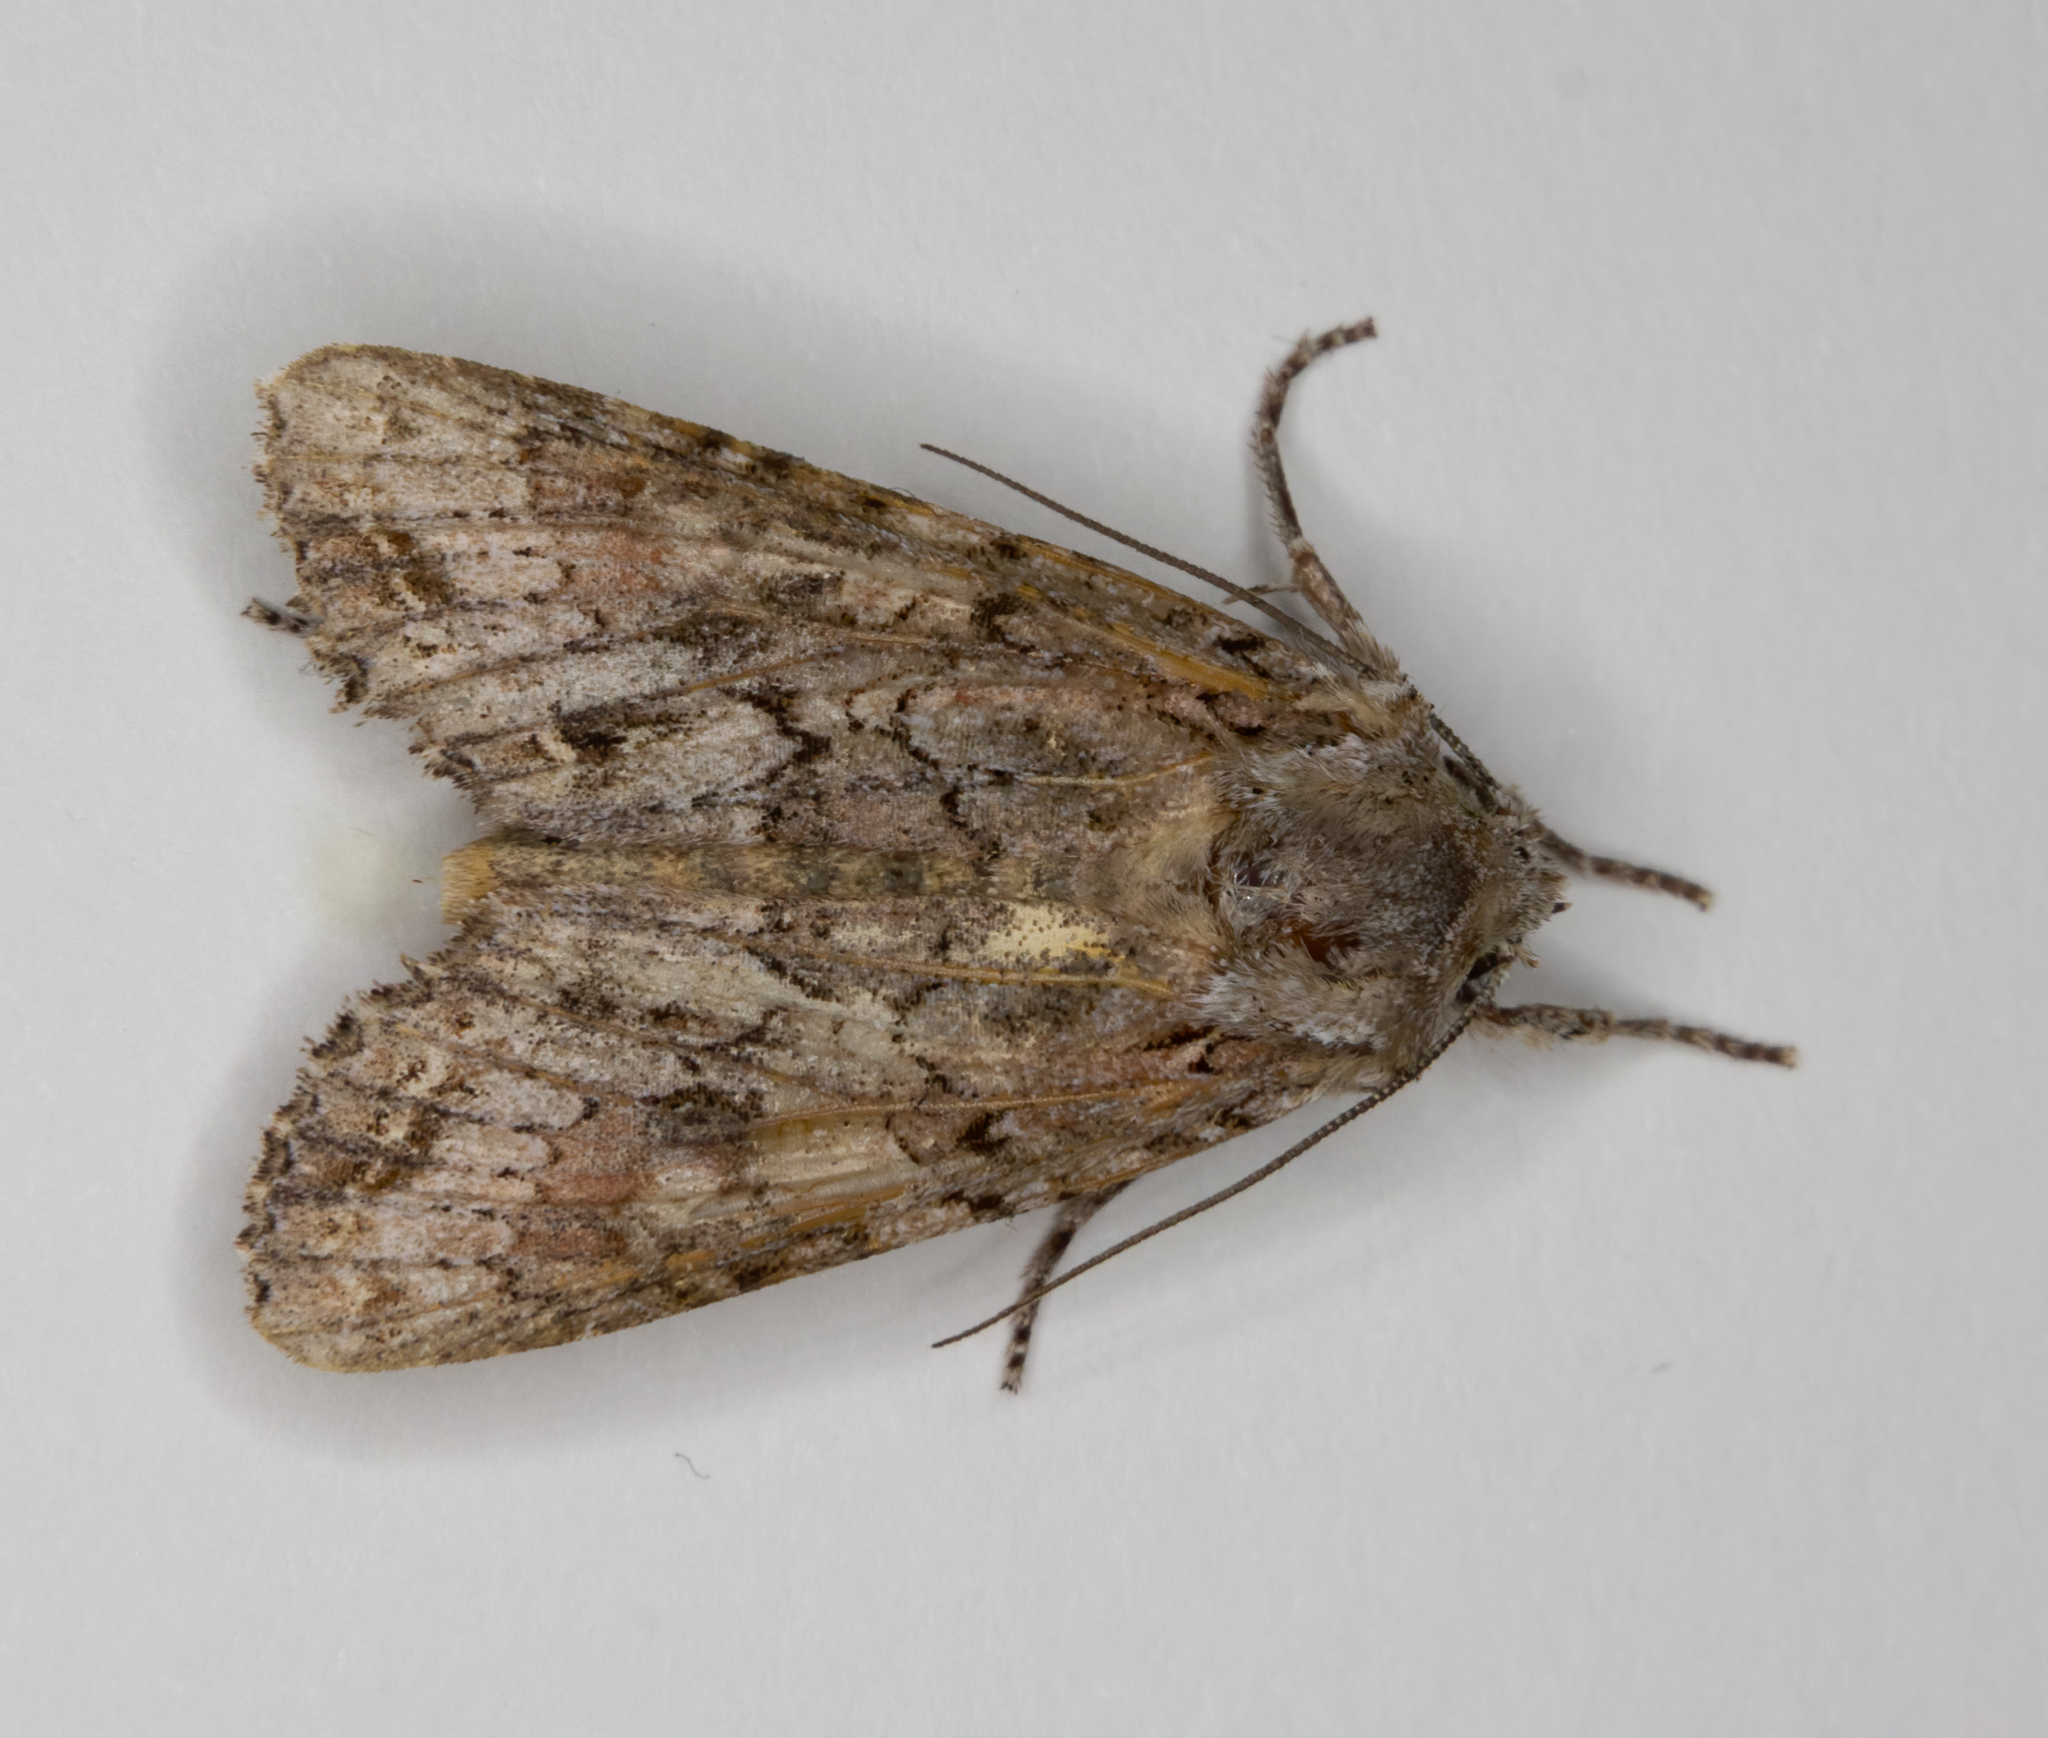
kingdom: Animalia
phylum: Arthropoda
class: Insecta
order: Lepidoptera
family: Noctuidae
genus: Ichneutica
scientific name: Ichneutica mutans
